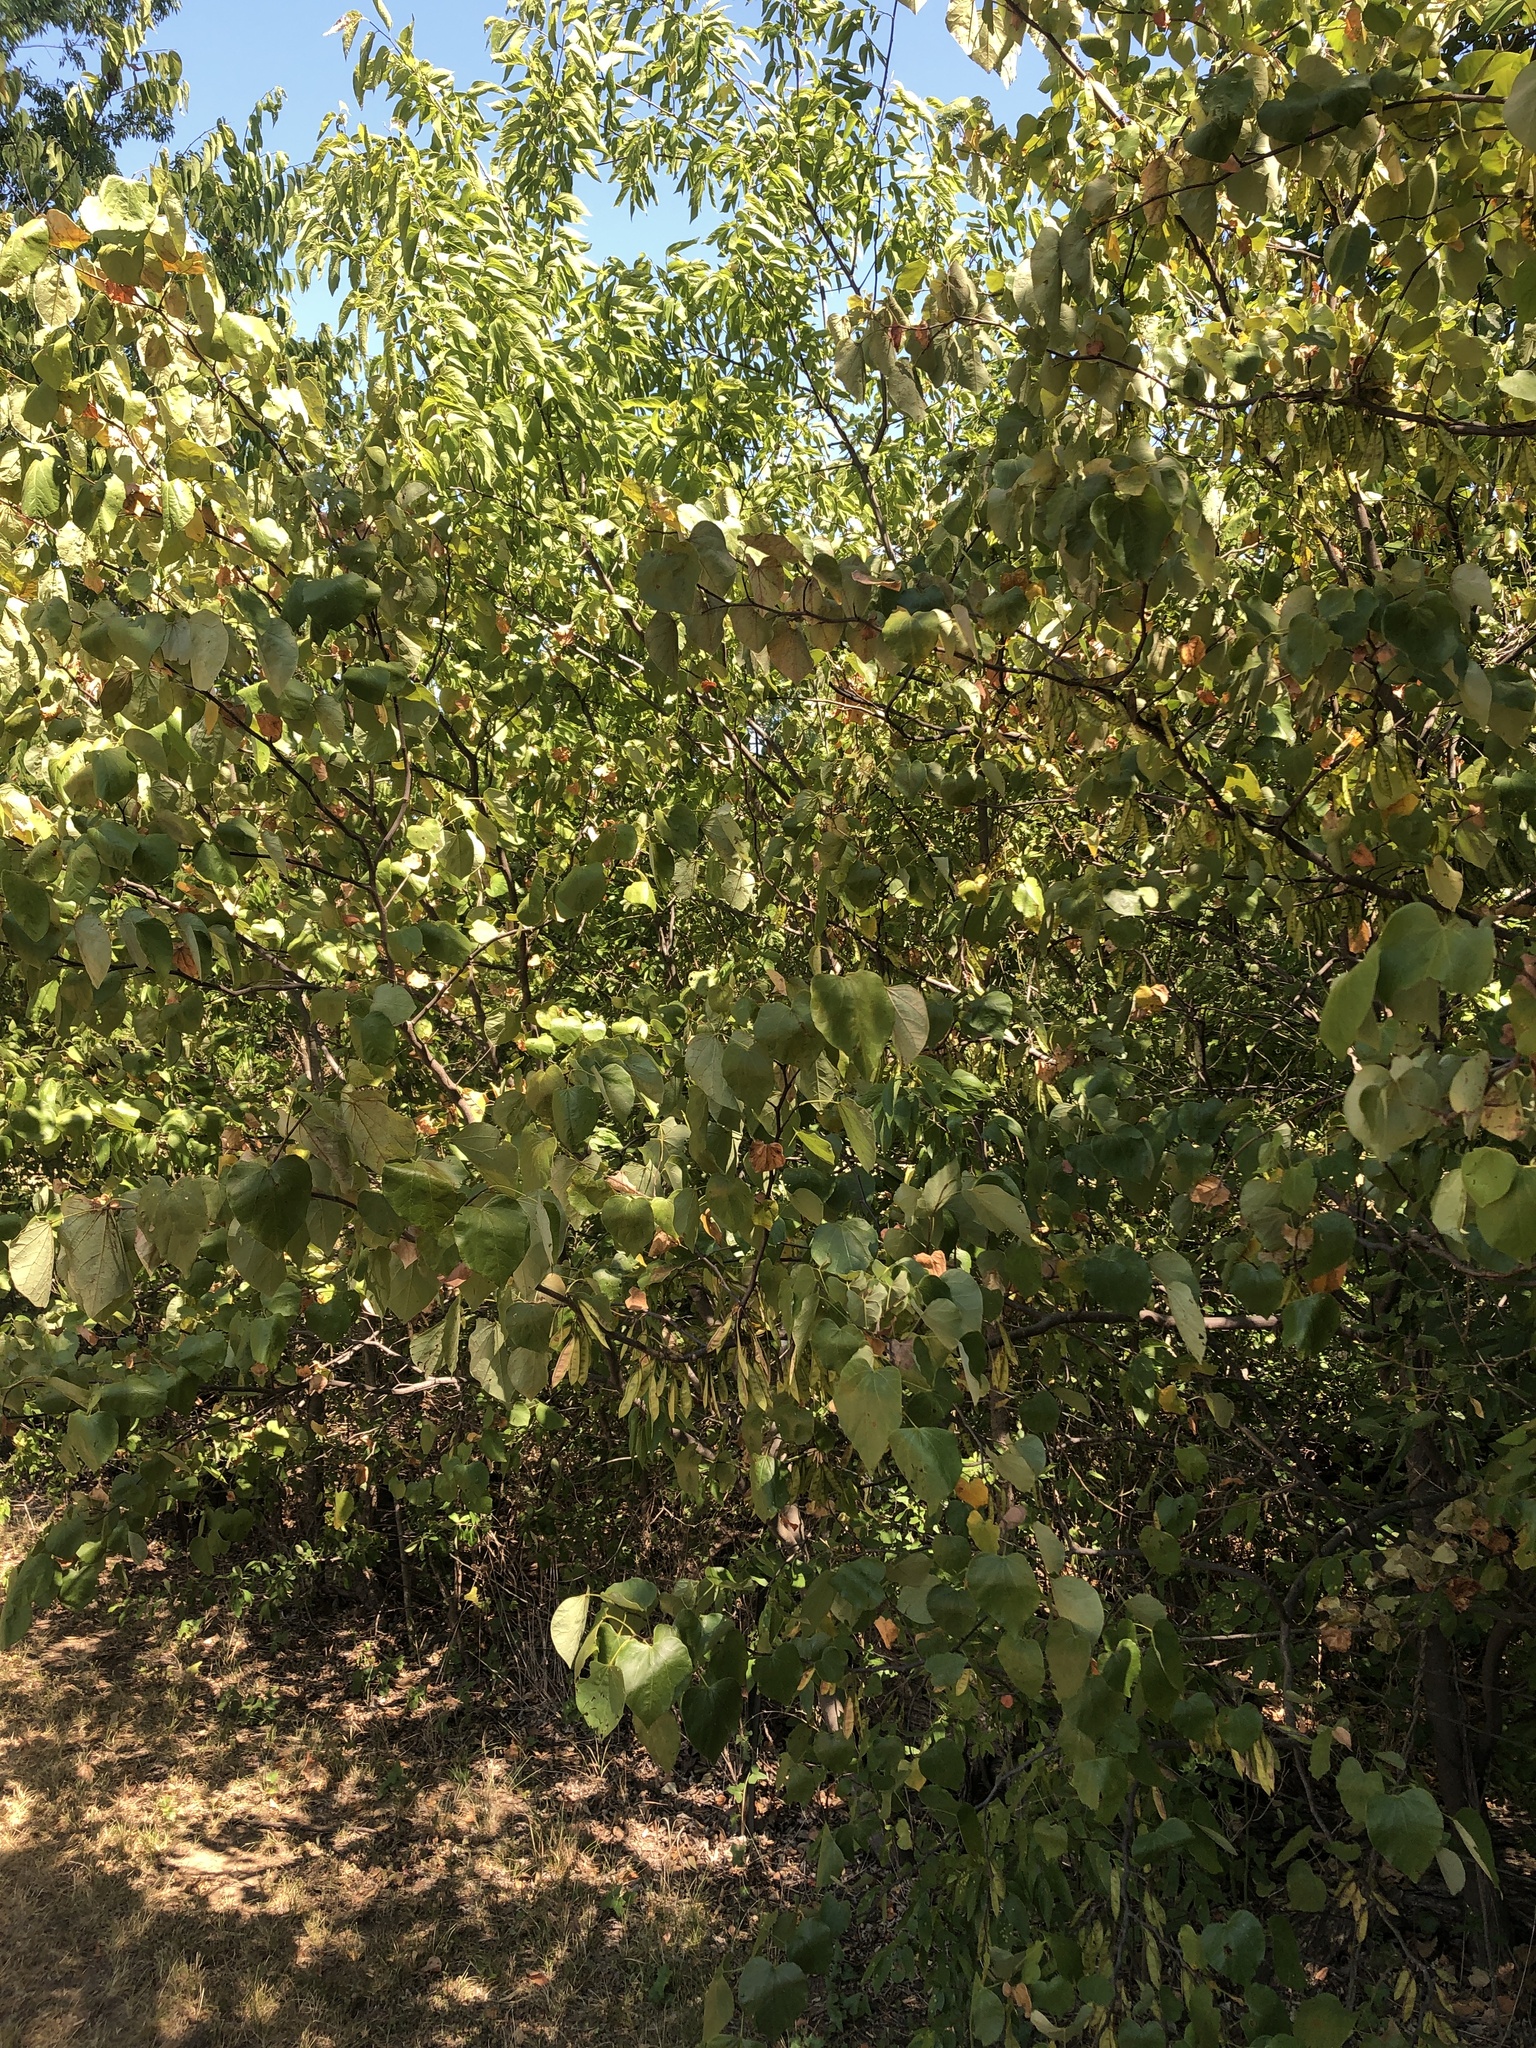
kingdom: Plantae
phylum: Tracheophyta
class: Magnoliopsida
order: Fabales
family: Fabaceae
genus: Cercis
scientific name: Cercis canadensis
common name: Eastern redbud
